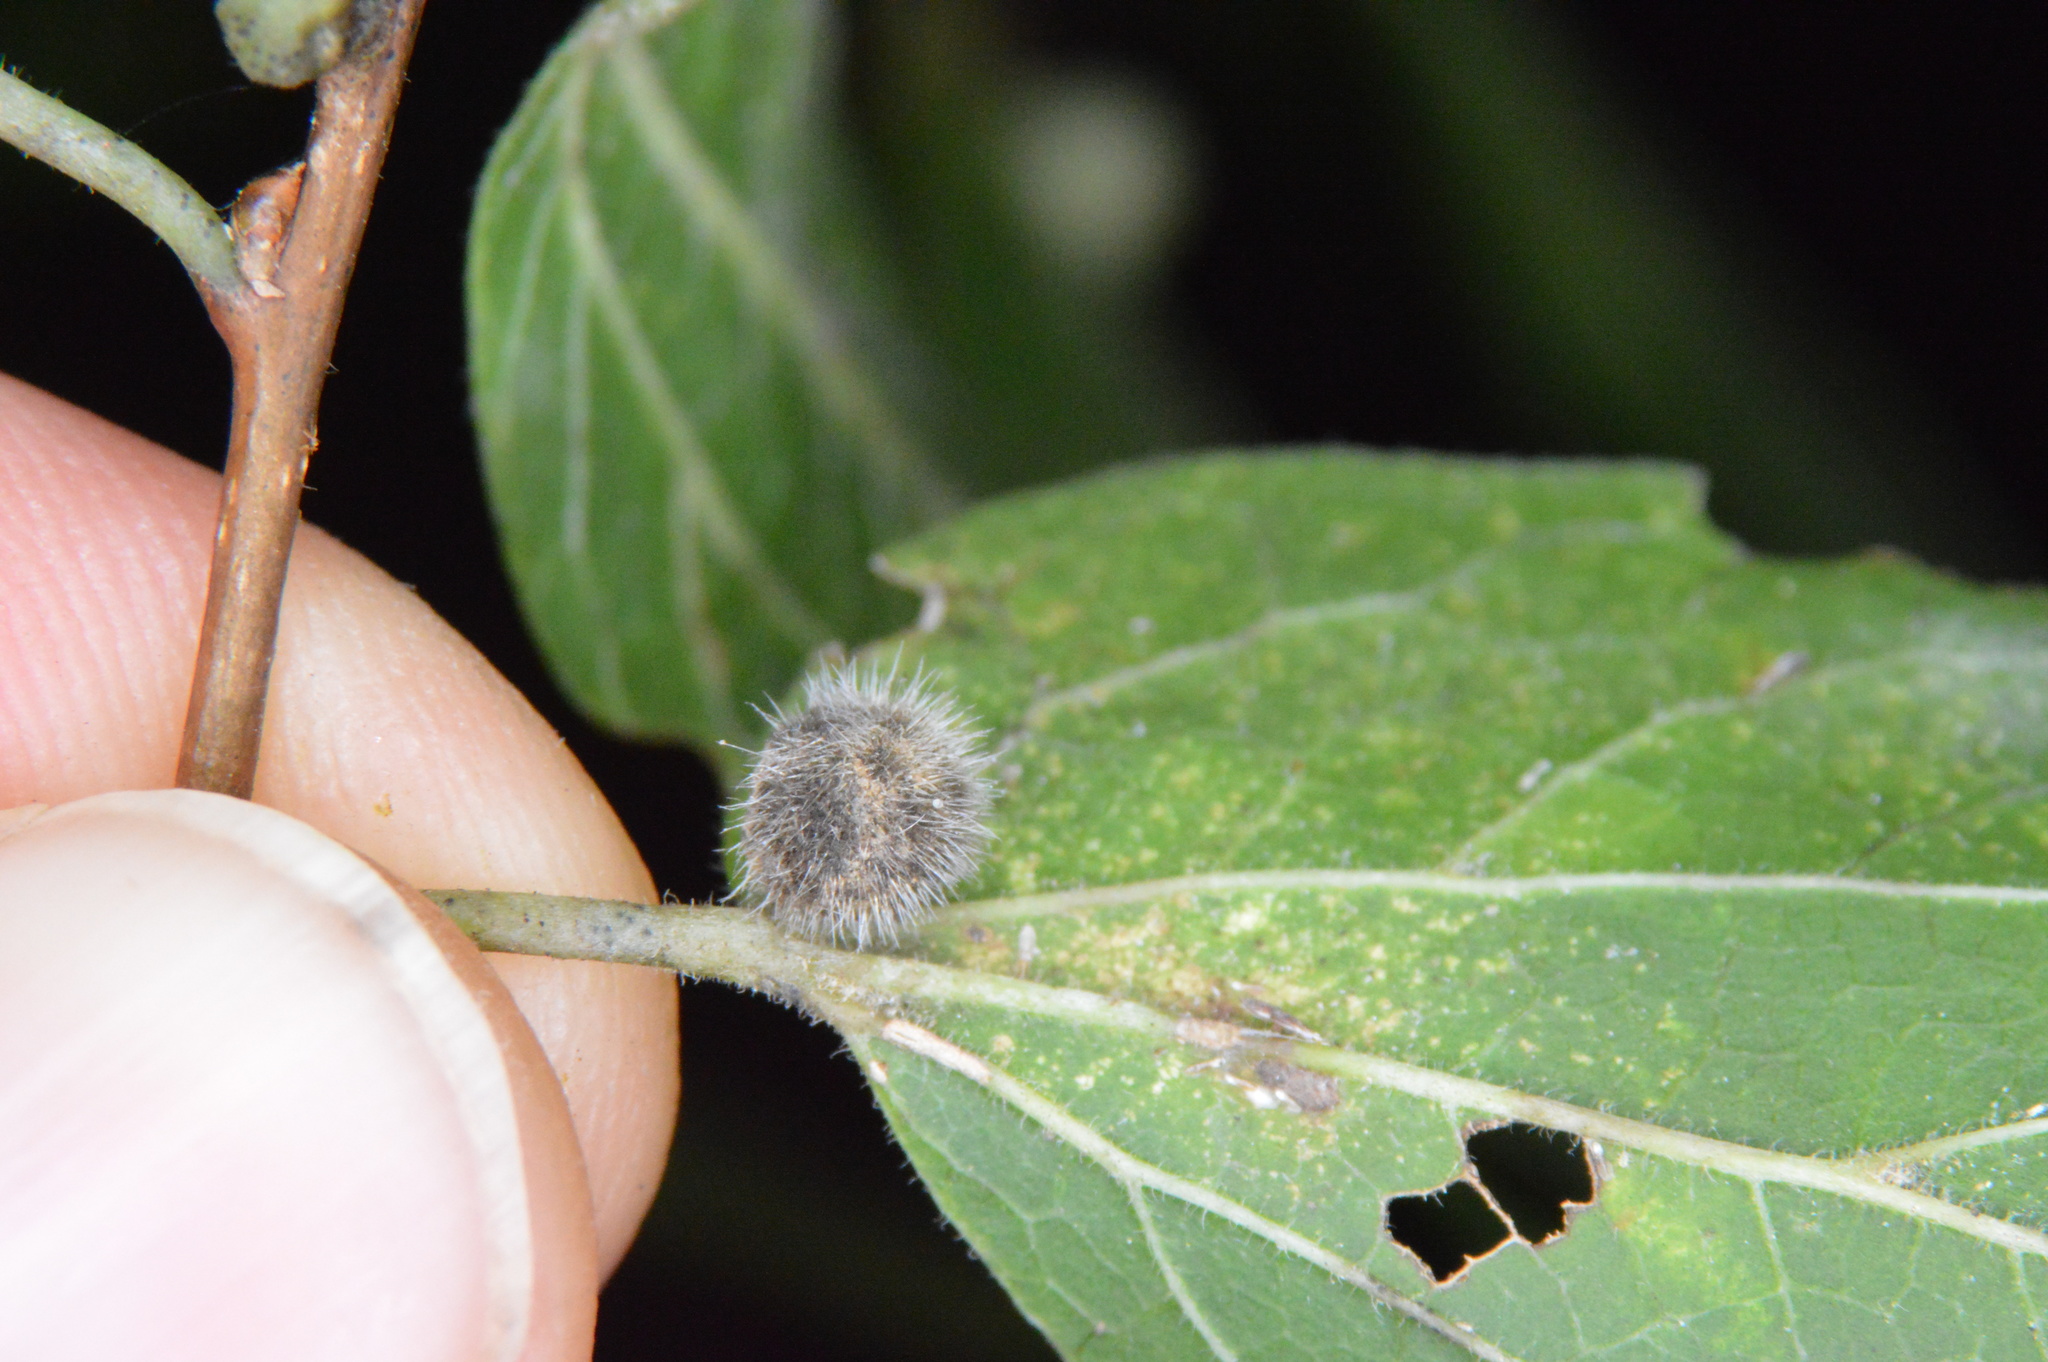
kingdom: Animalia
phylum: Arthropoda
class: Insecta
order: Diptera
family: Cecidomyiidae
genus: Celticecis
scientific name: Celticecis pubescens
